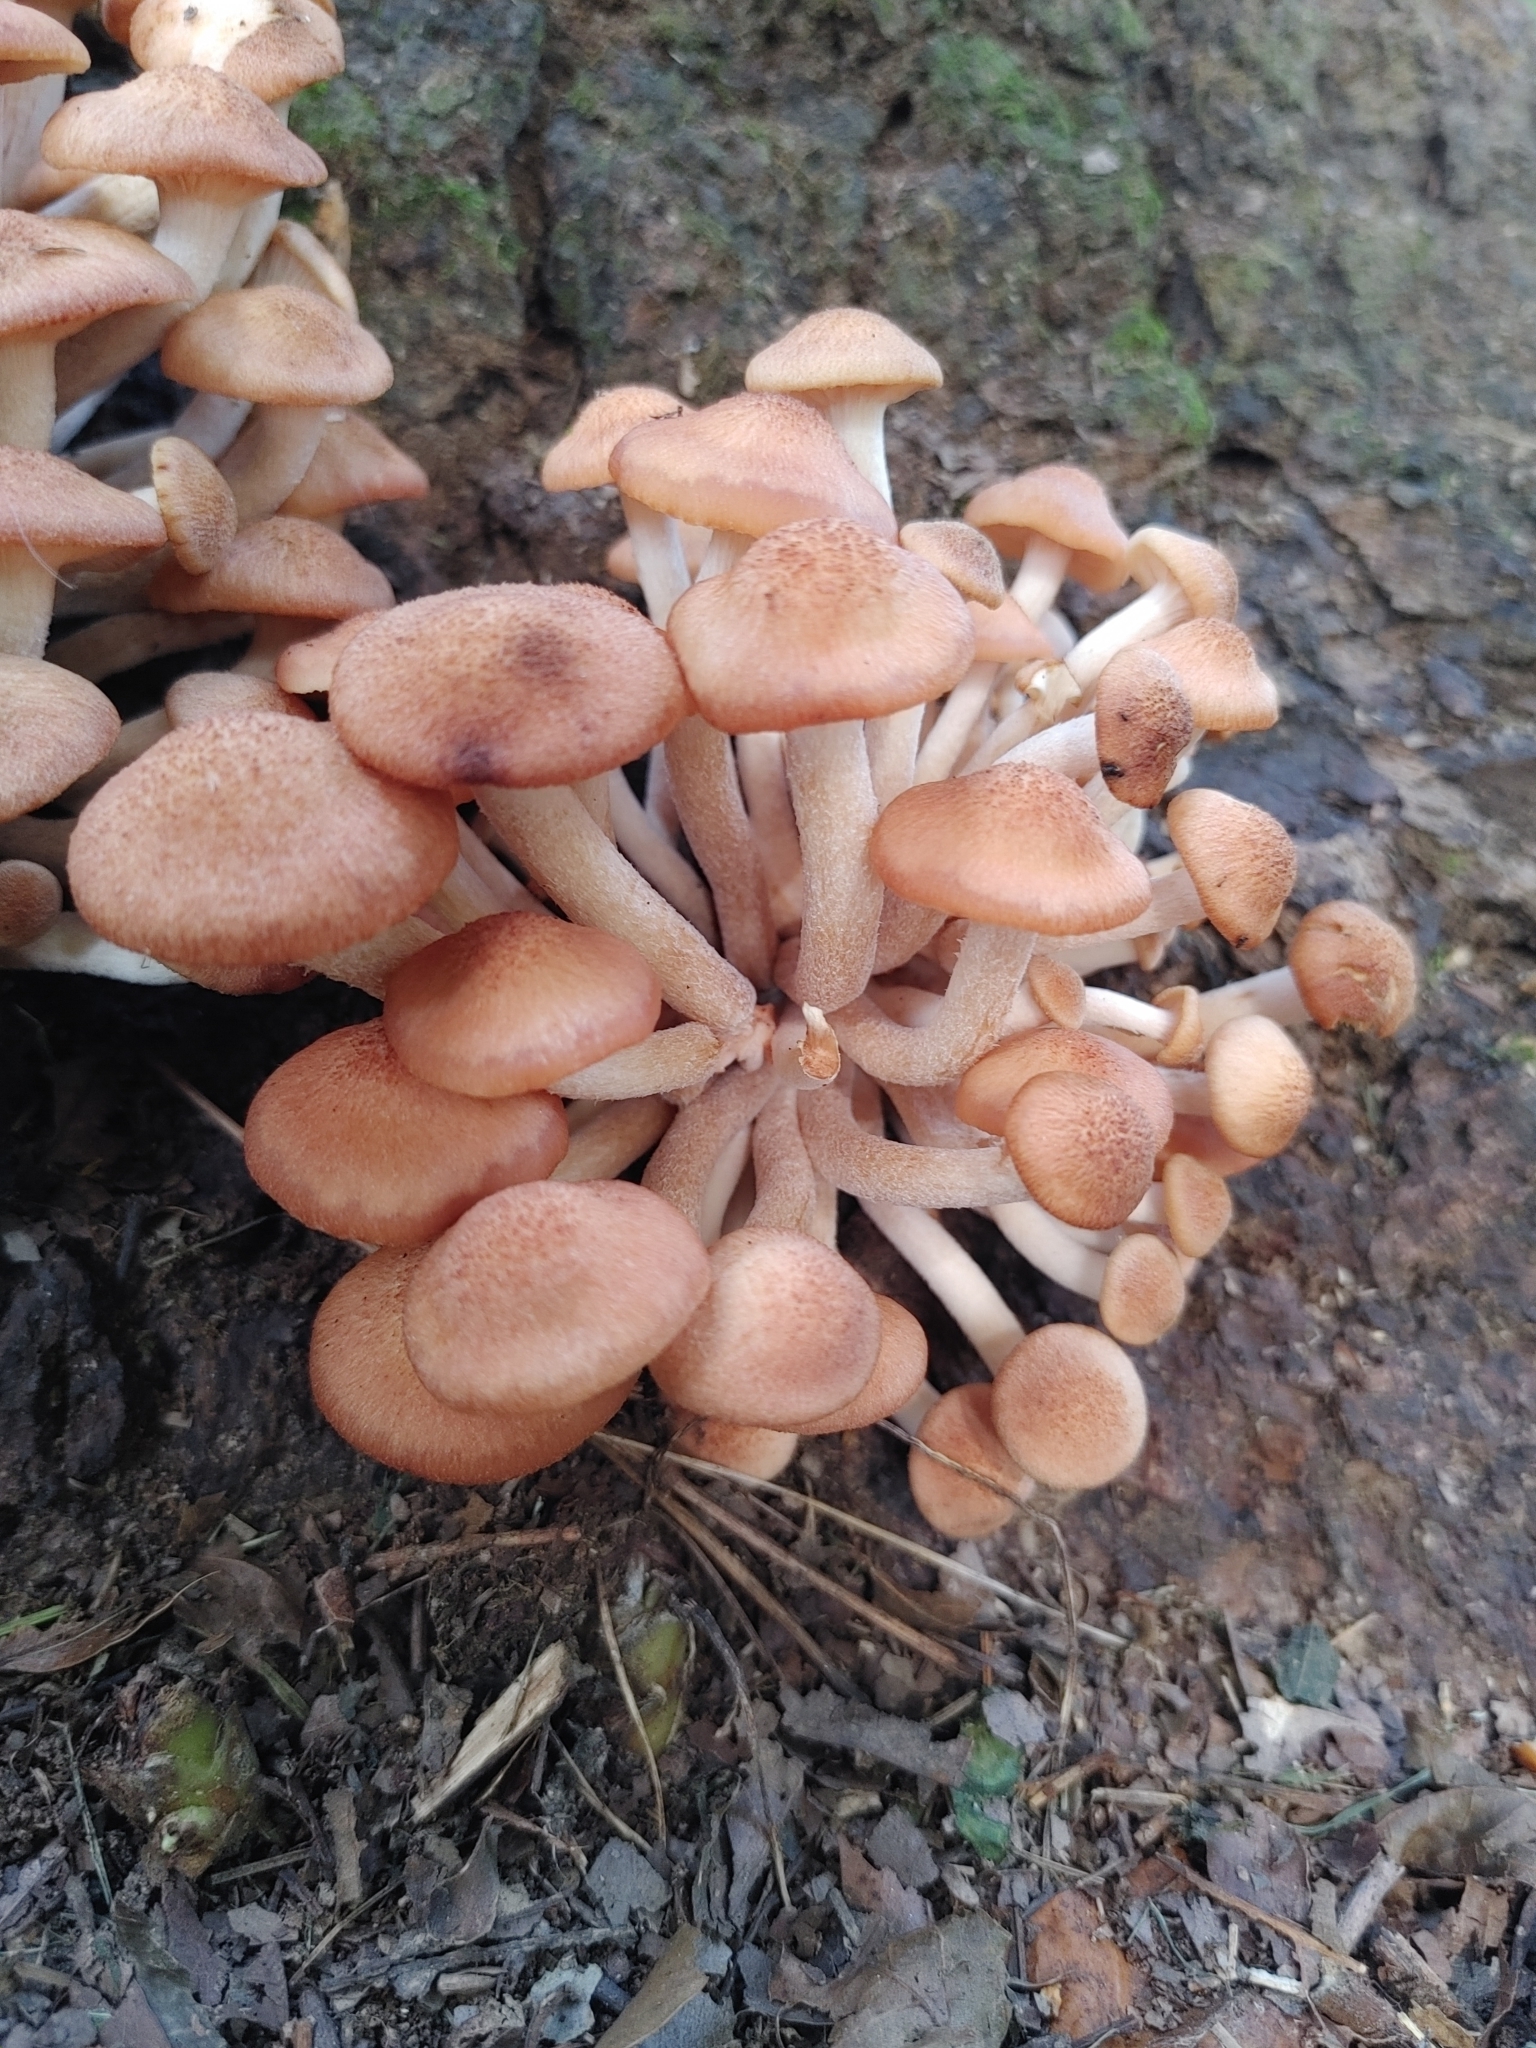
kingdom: Fungi
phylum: Basidiomycota
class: Agaricomycetes
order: Agaricales
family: Physalacriaceae
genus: Desarmillaria
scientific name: Desarmillaria caespitosa
